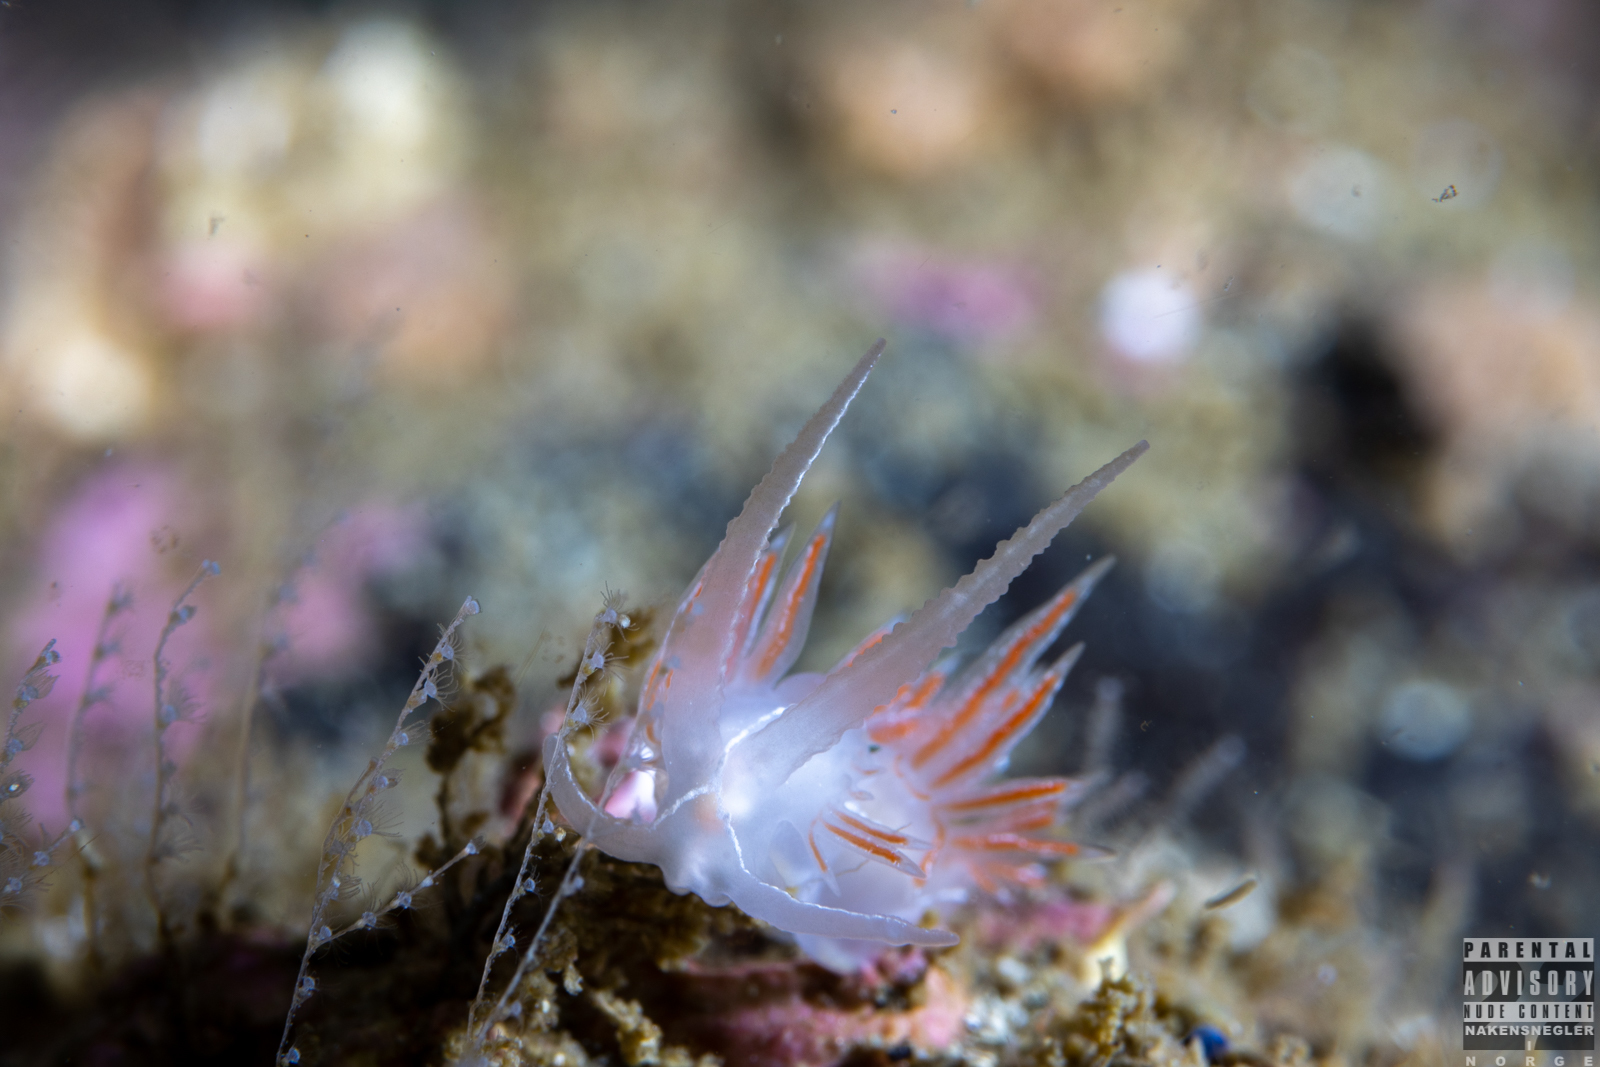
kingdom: Animalia
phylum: Mollusca
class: Gastropoda
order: Nudibranchia
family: Coryphellidae
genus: Coryphella
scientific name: Coryphella chriskaugei
